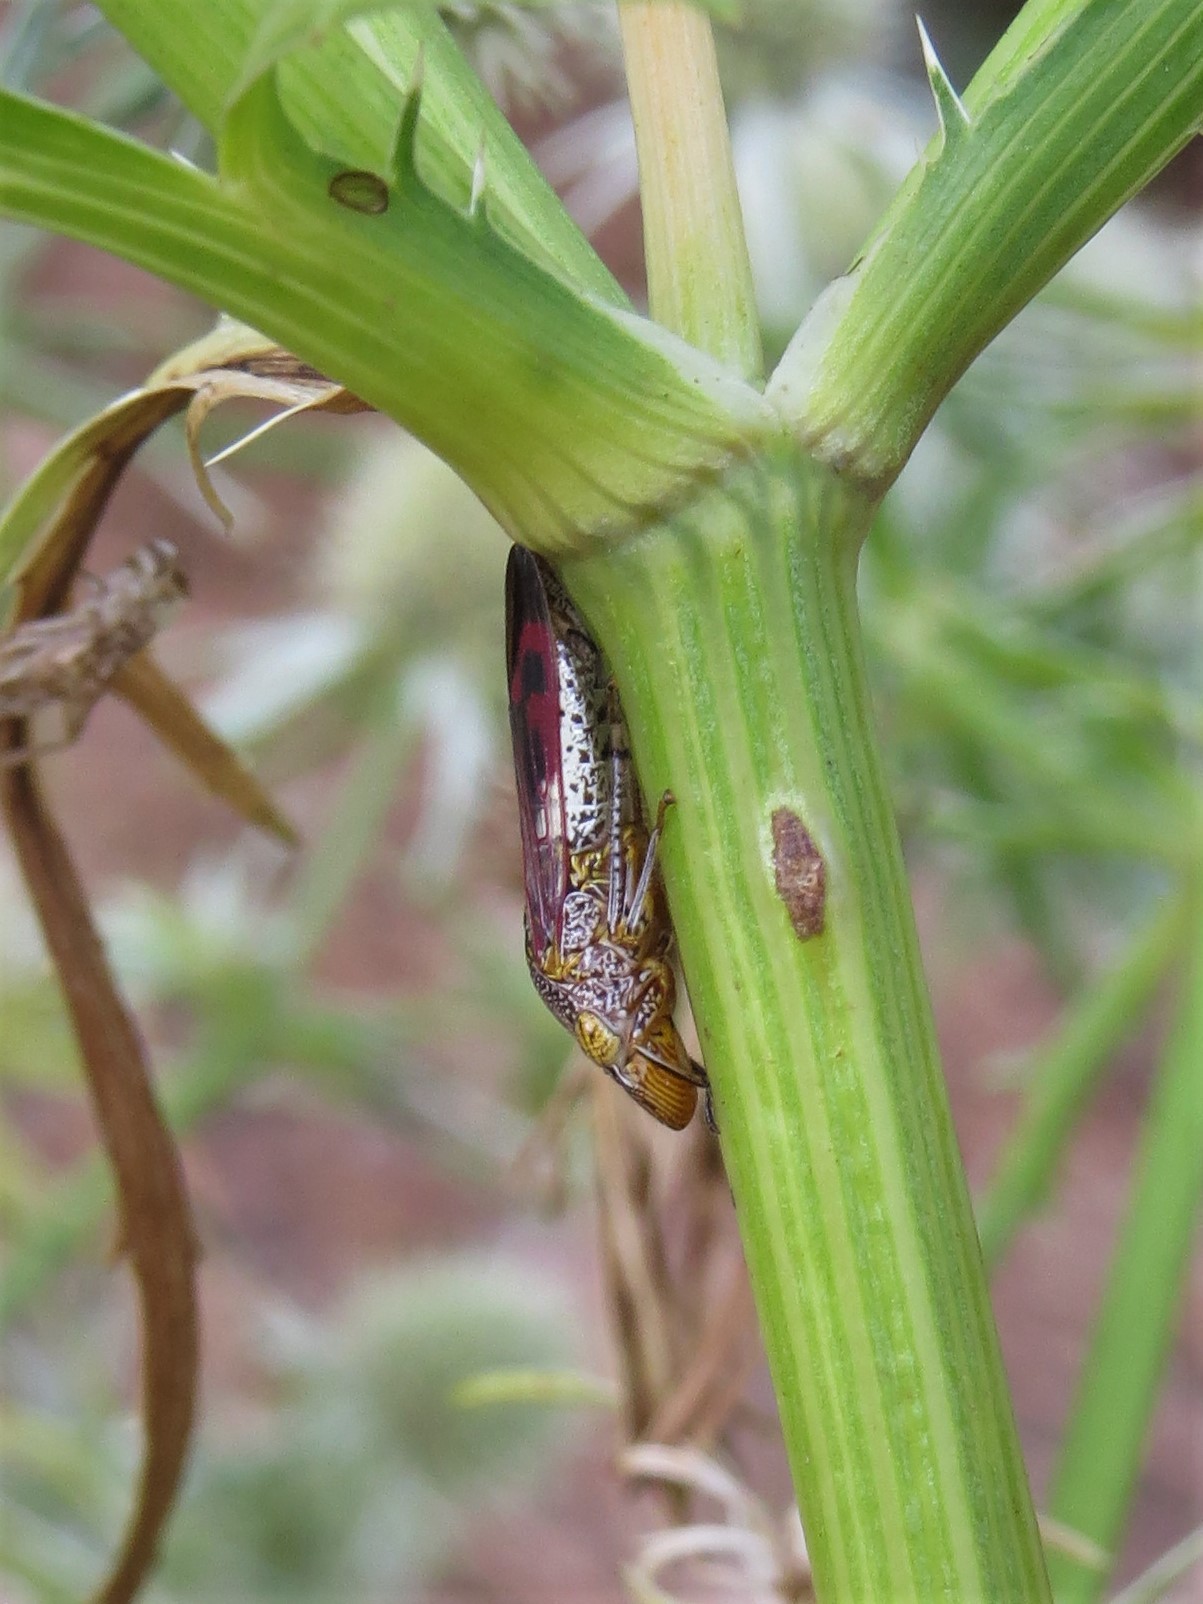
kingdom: Animalia
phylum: Arthropoda
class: Insecta
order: Hemiptera
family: Cicadellidae
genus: Homalodisca
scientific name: Homalodisca vitripennis
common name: Glassy-winged sharpshooter
